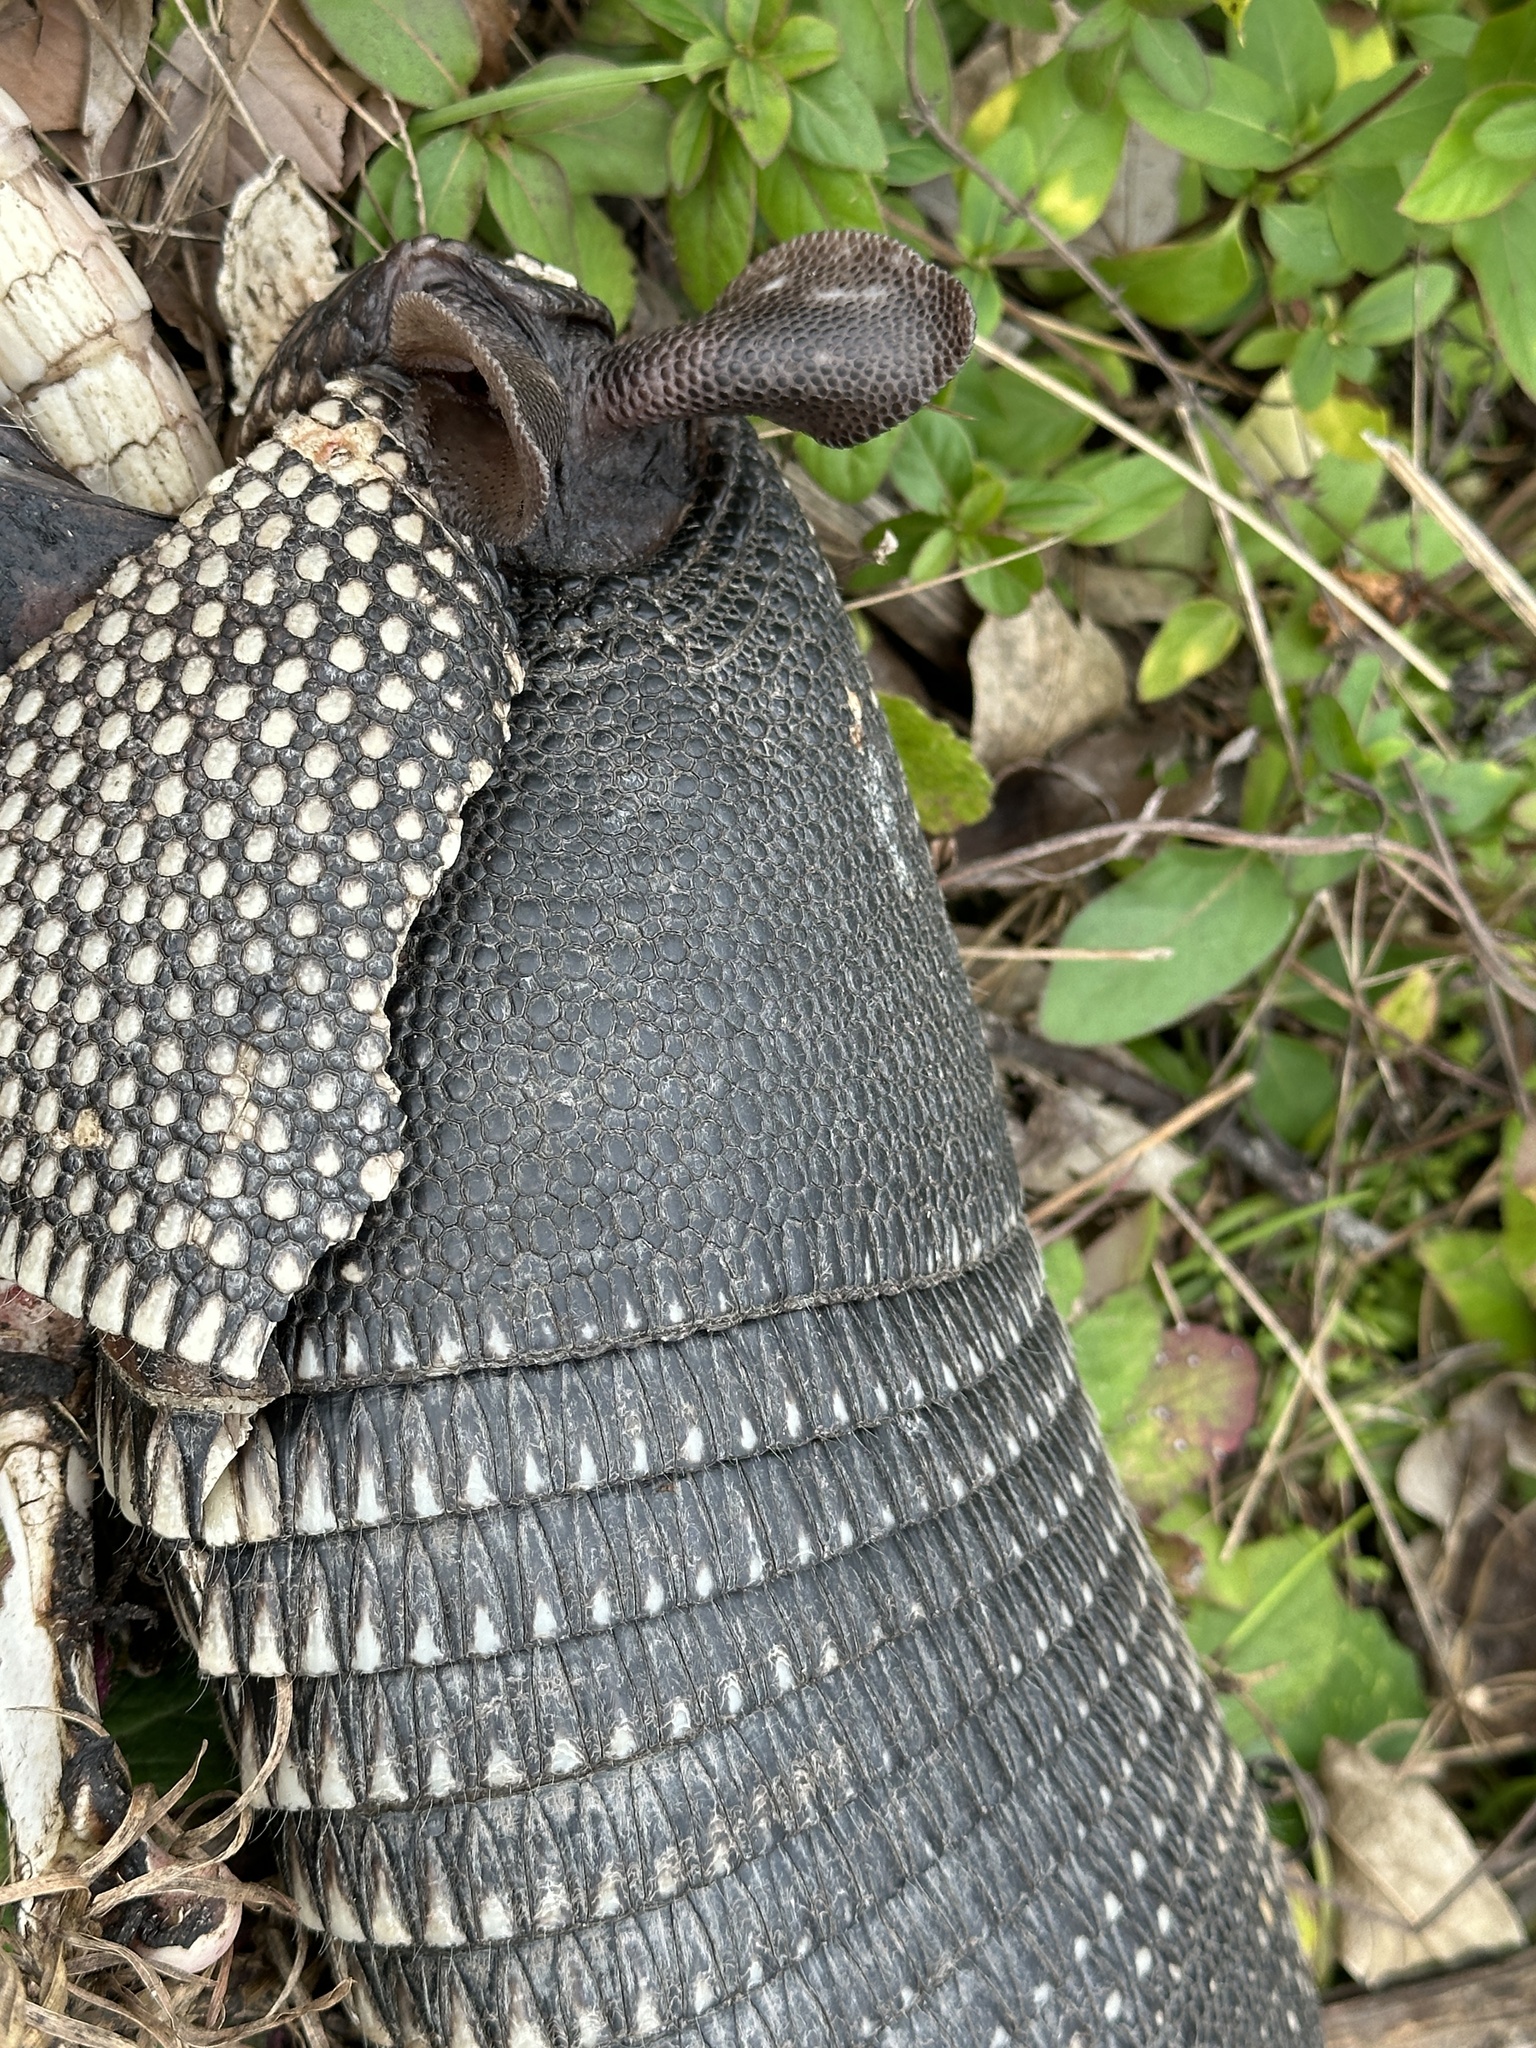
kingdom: Animalia
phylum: Chordata
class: Mammalia
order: Cingulata
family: Dasypodidae
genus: Dasypus
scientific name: Dasypus novemcinctus
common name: Nine-banded armadillo
